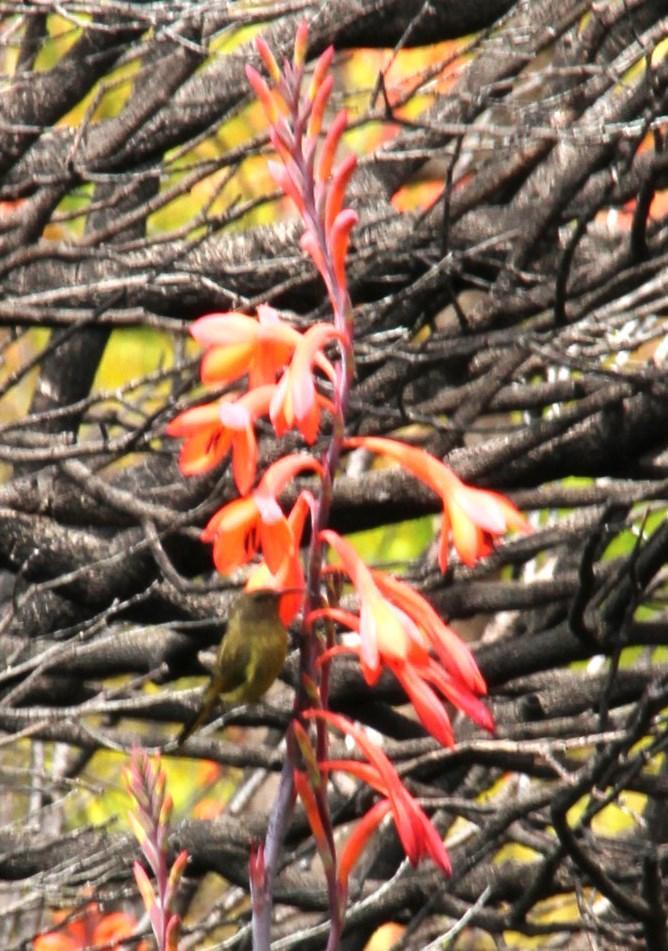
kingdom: Plantae
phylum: Tracheophyta
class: Liliopsida
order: Asparagales
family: Iridaceae
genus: Watsonia
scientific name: Watsonia tabularis
